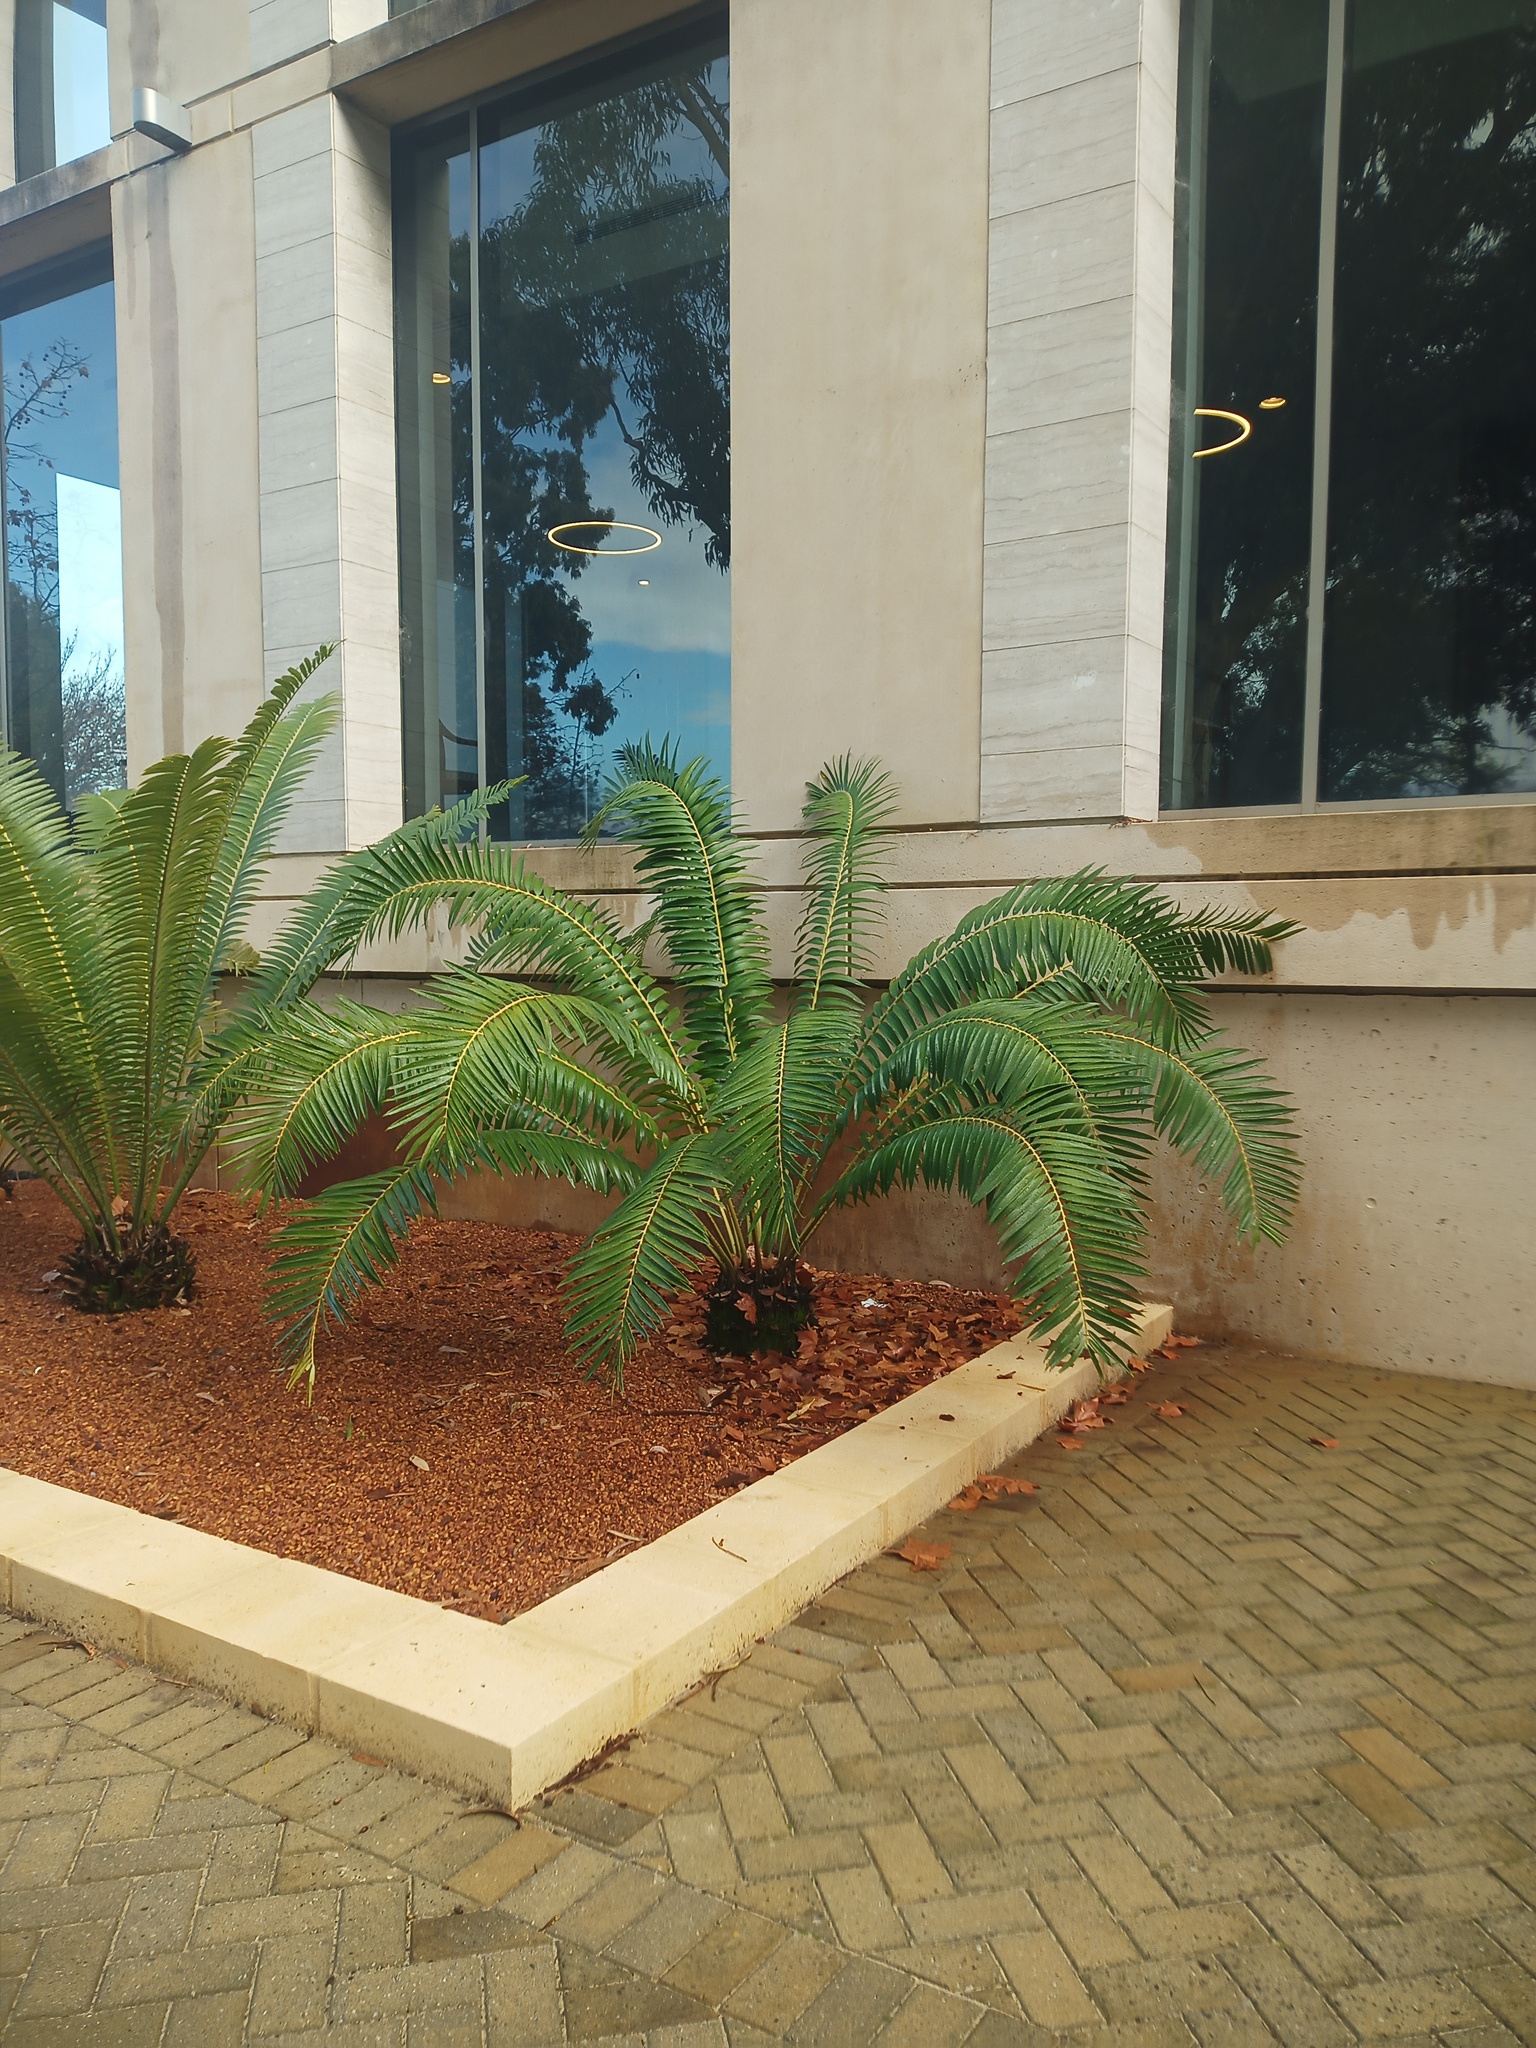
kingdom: Plantae
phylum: Bryophyta
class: Bryopsida
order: Pottiales
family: Pottiaceae
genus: Syntrichia
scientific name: Syntrichia pagorum
